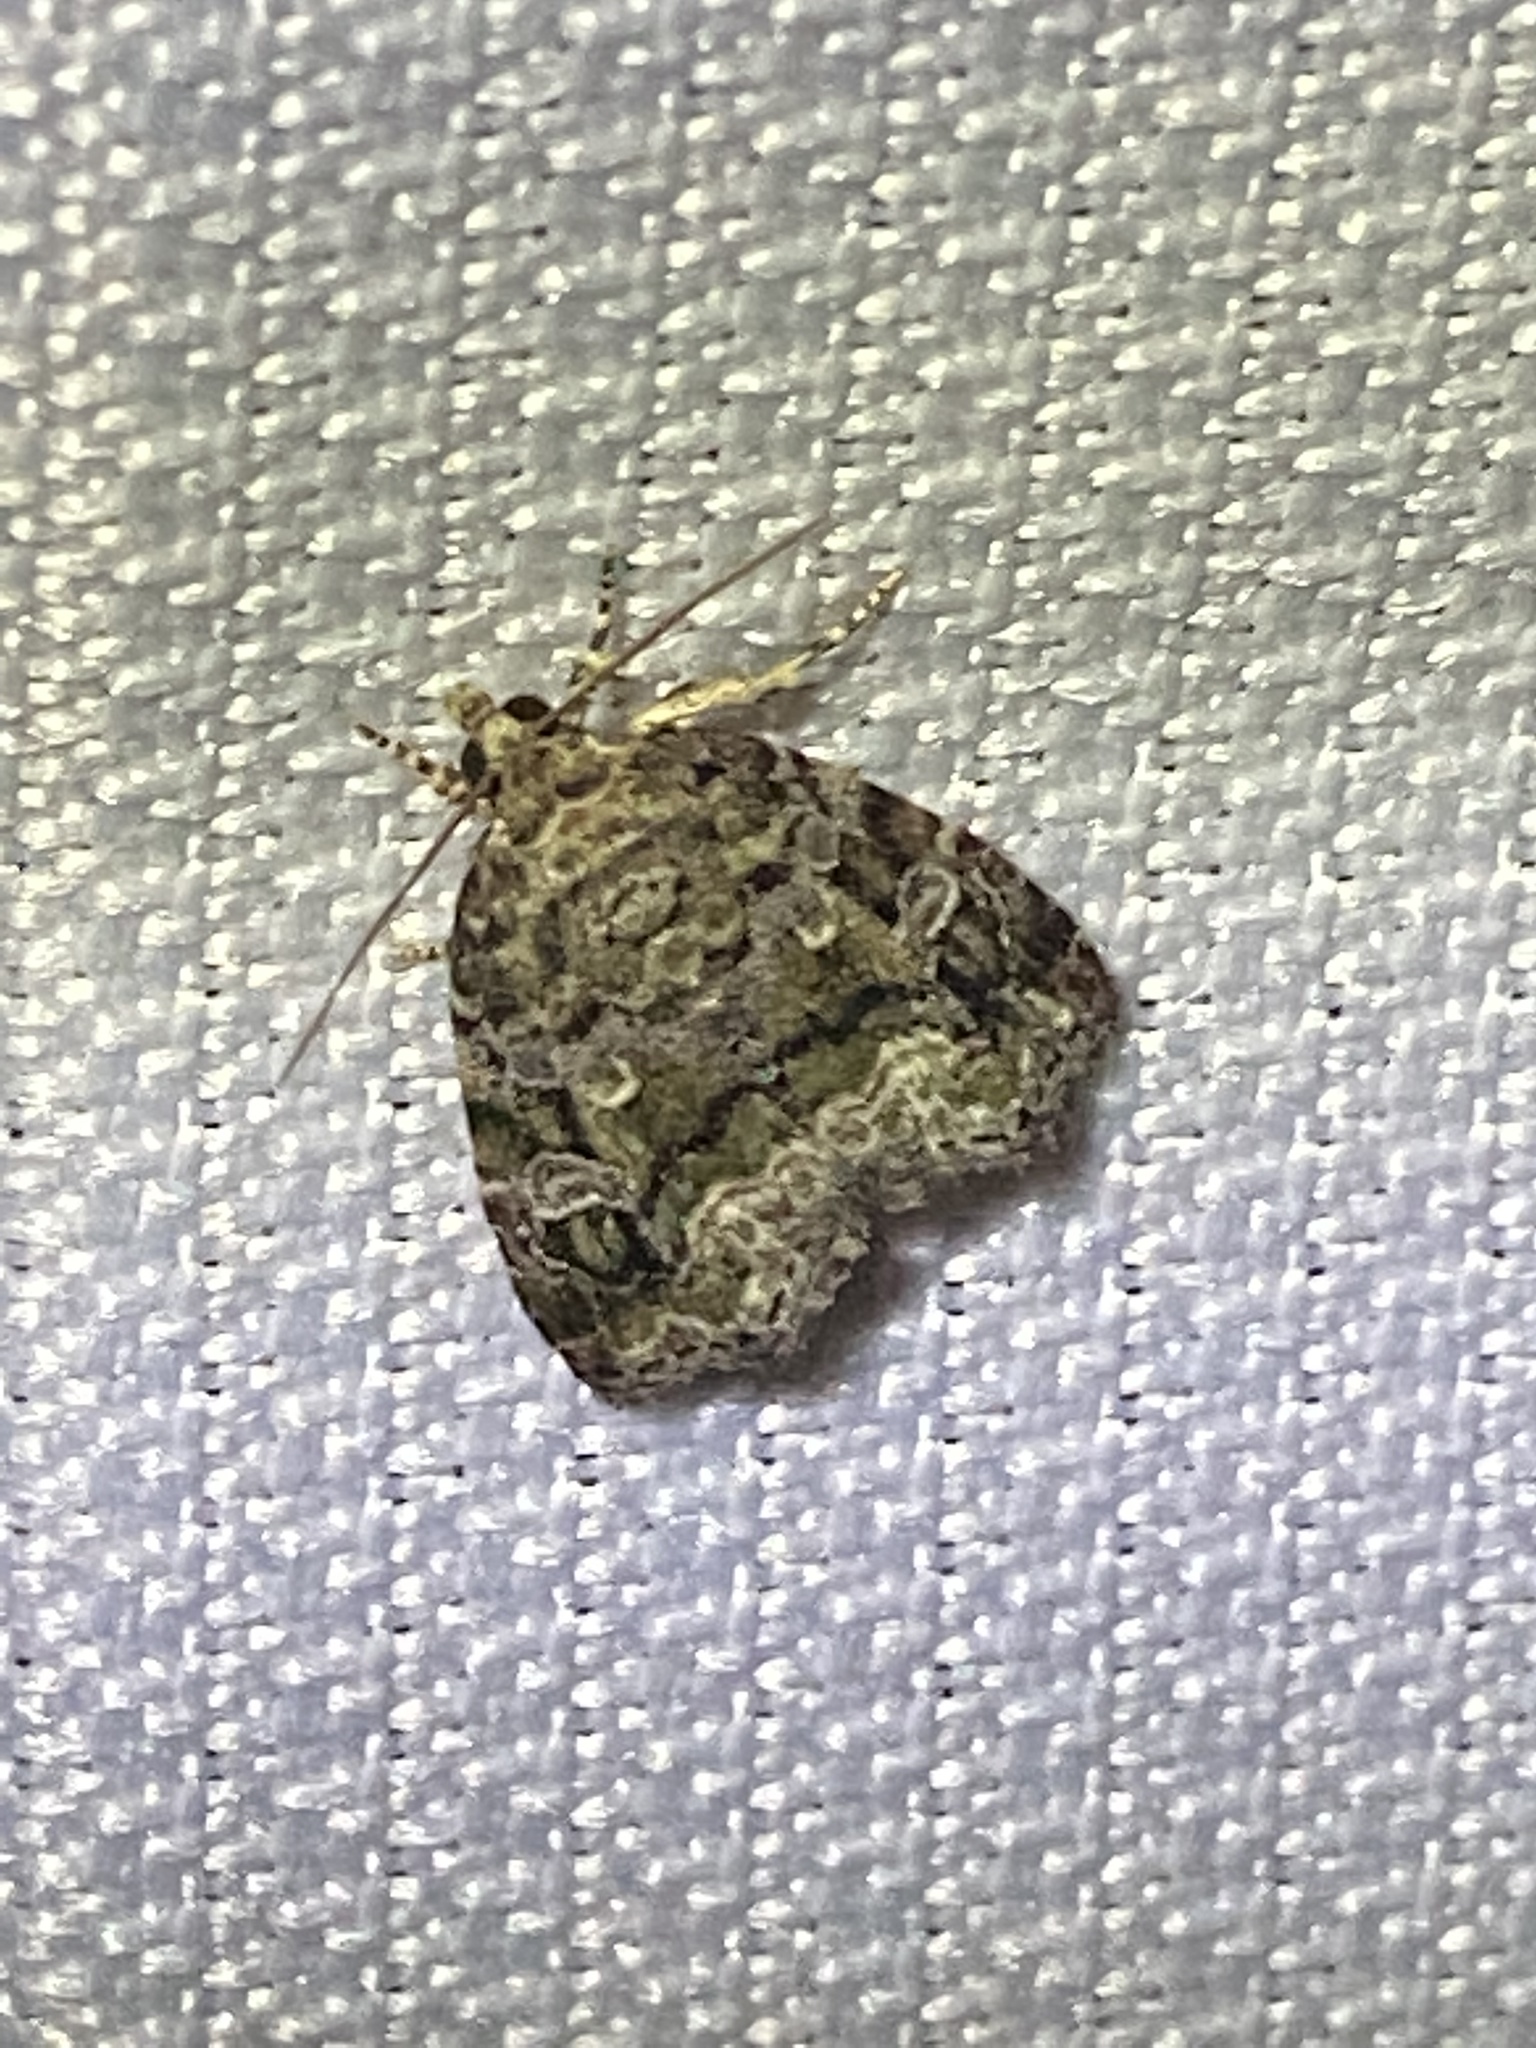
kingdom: Animalia
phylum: Arthropoda
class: Insecta
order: Lepidoptera
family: Noctuidae
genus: Protodeltote
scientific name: Protodeltote muscosula
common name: Large mossy glyph
